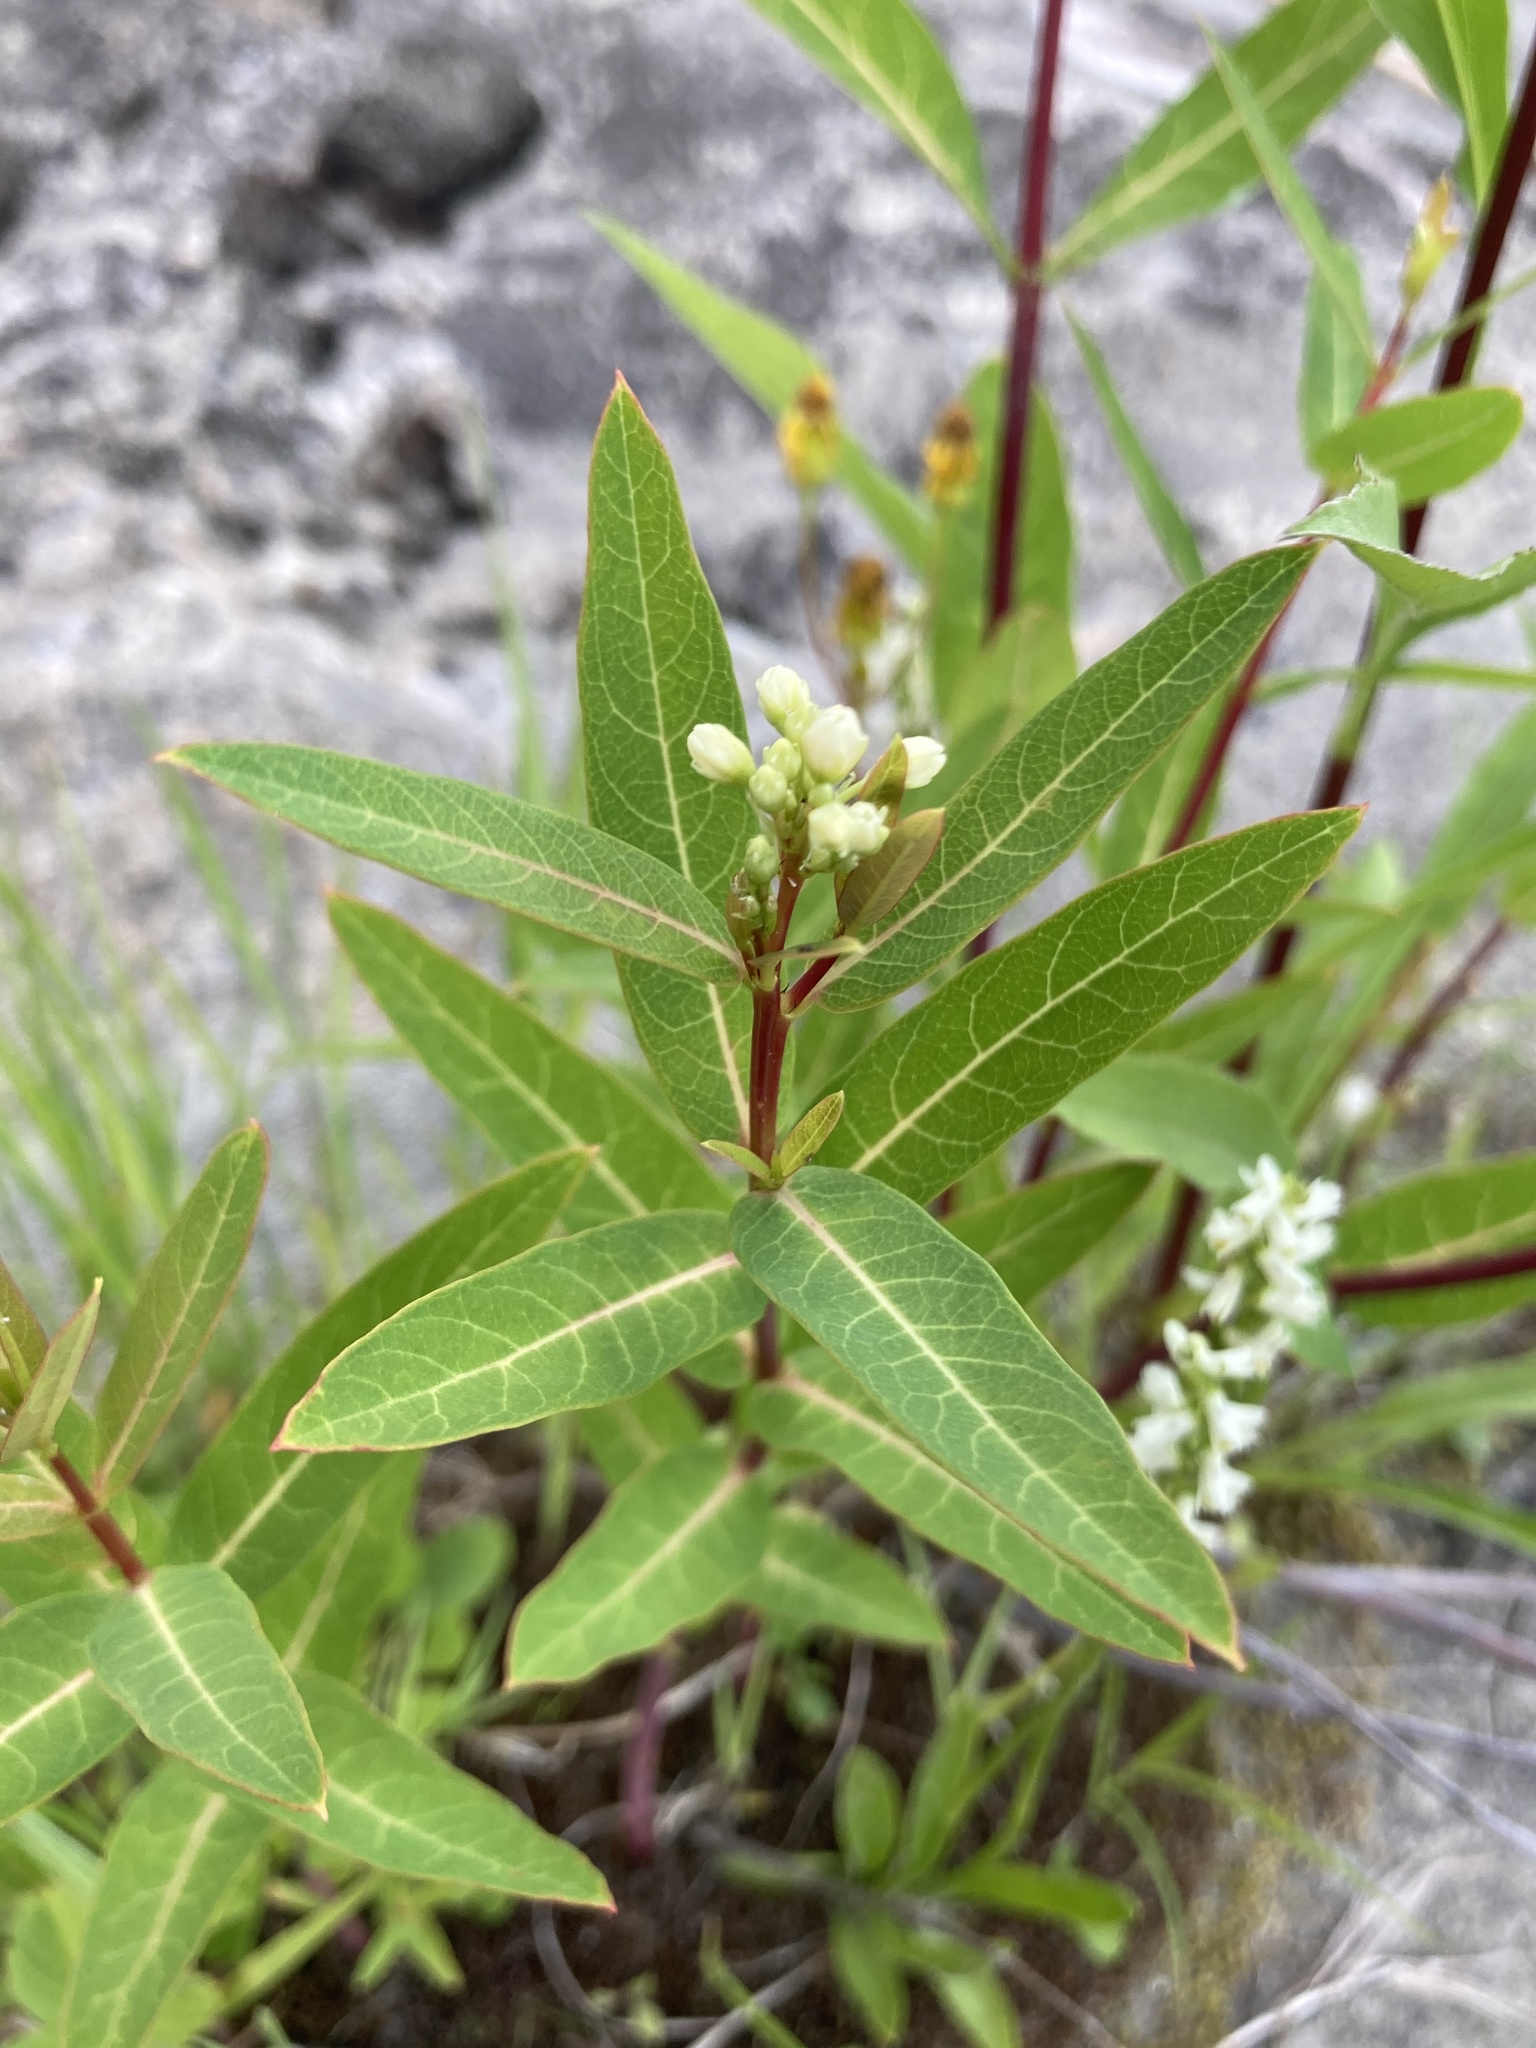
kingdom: Plantae
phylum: Tracheophyta
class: Magnoliopsida
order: Gentianales
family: Apocynaceae
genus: Apocynum
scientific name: Apocynum cannabinum
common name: Hemp dogbane
